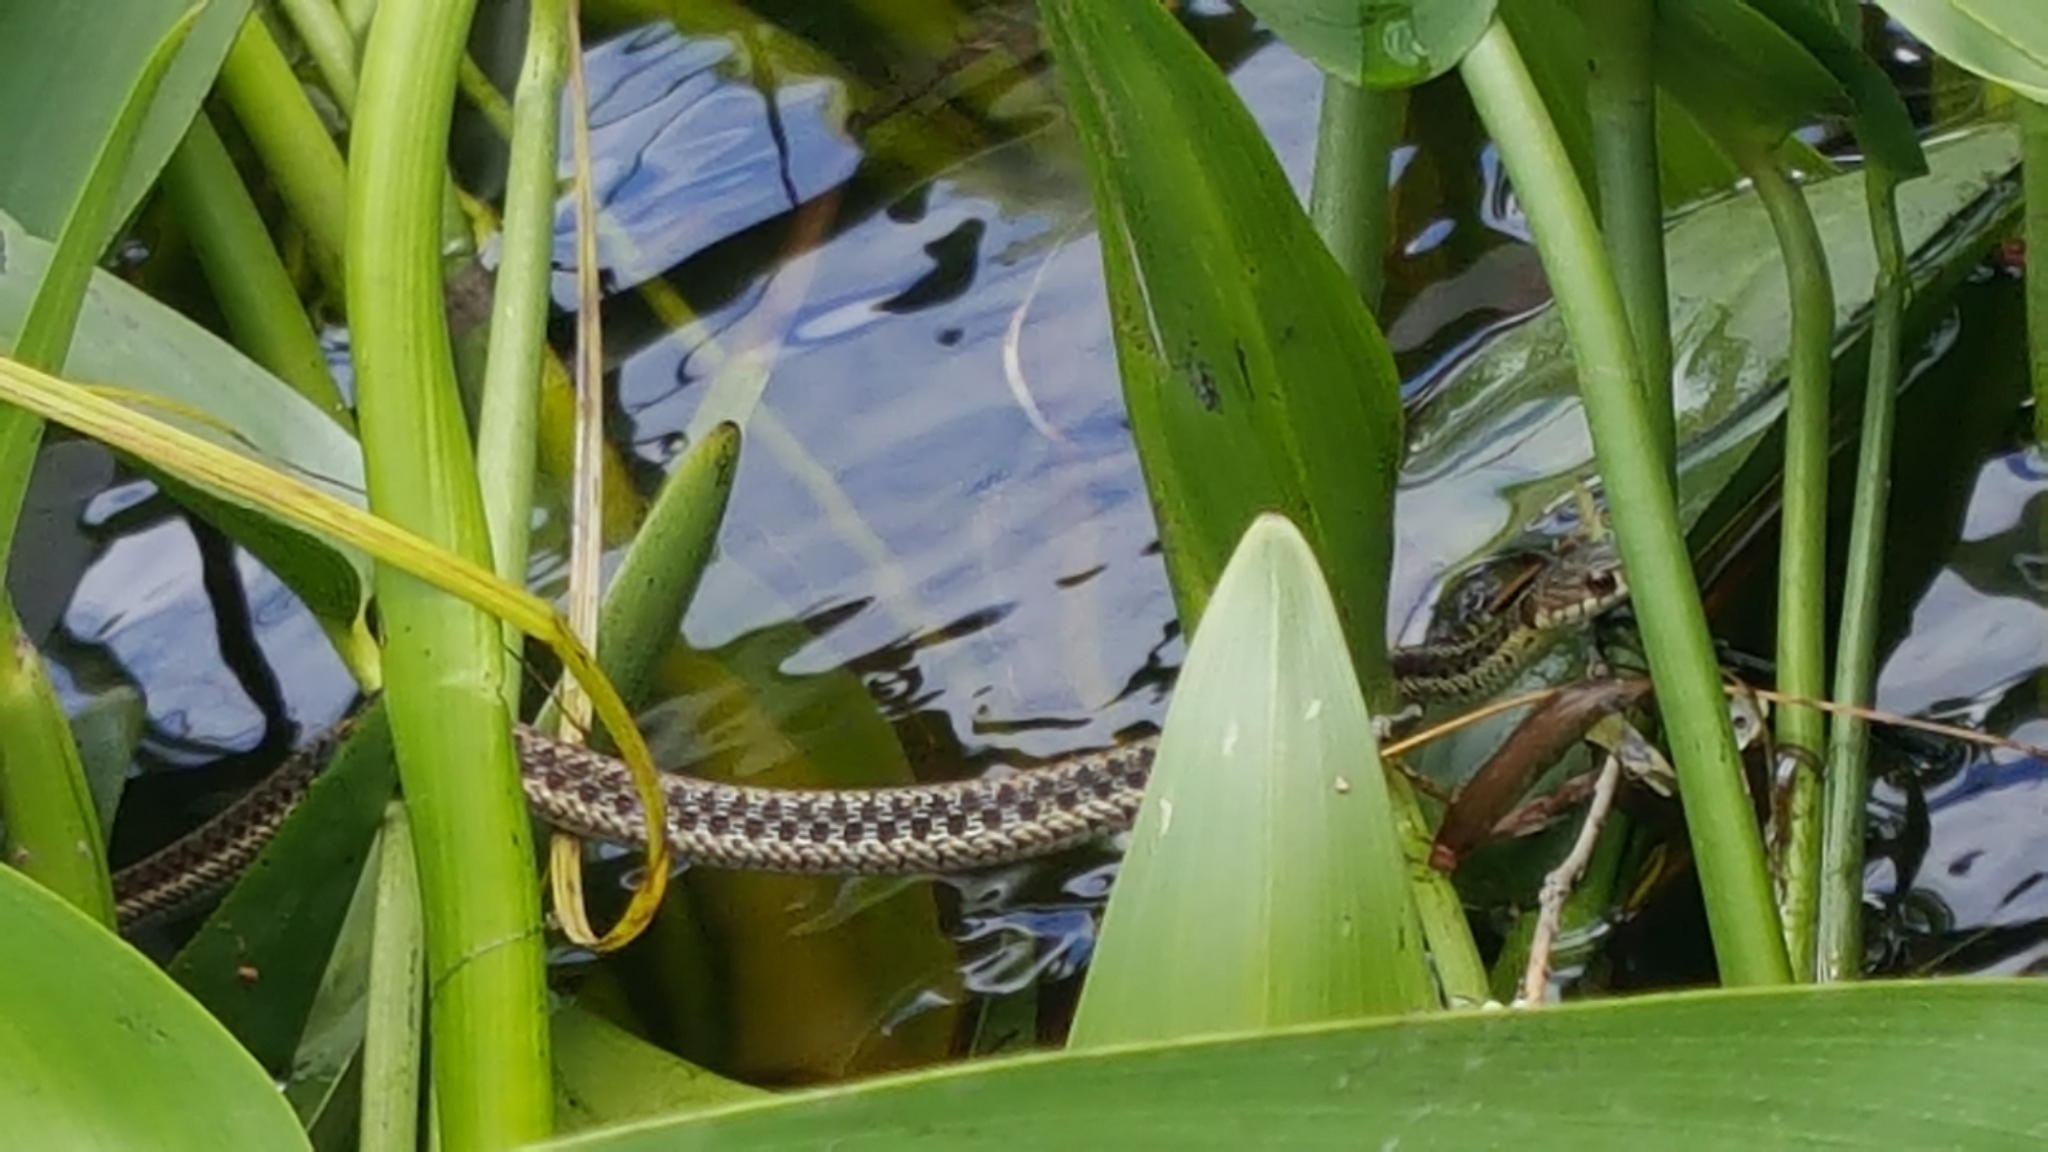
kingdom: Animalia
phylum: Chordata
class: Squamata
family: Colubridae
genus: Thamnophis
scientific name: Thamnophis sirtalis
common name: Common garter snake
